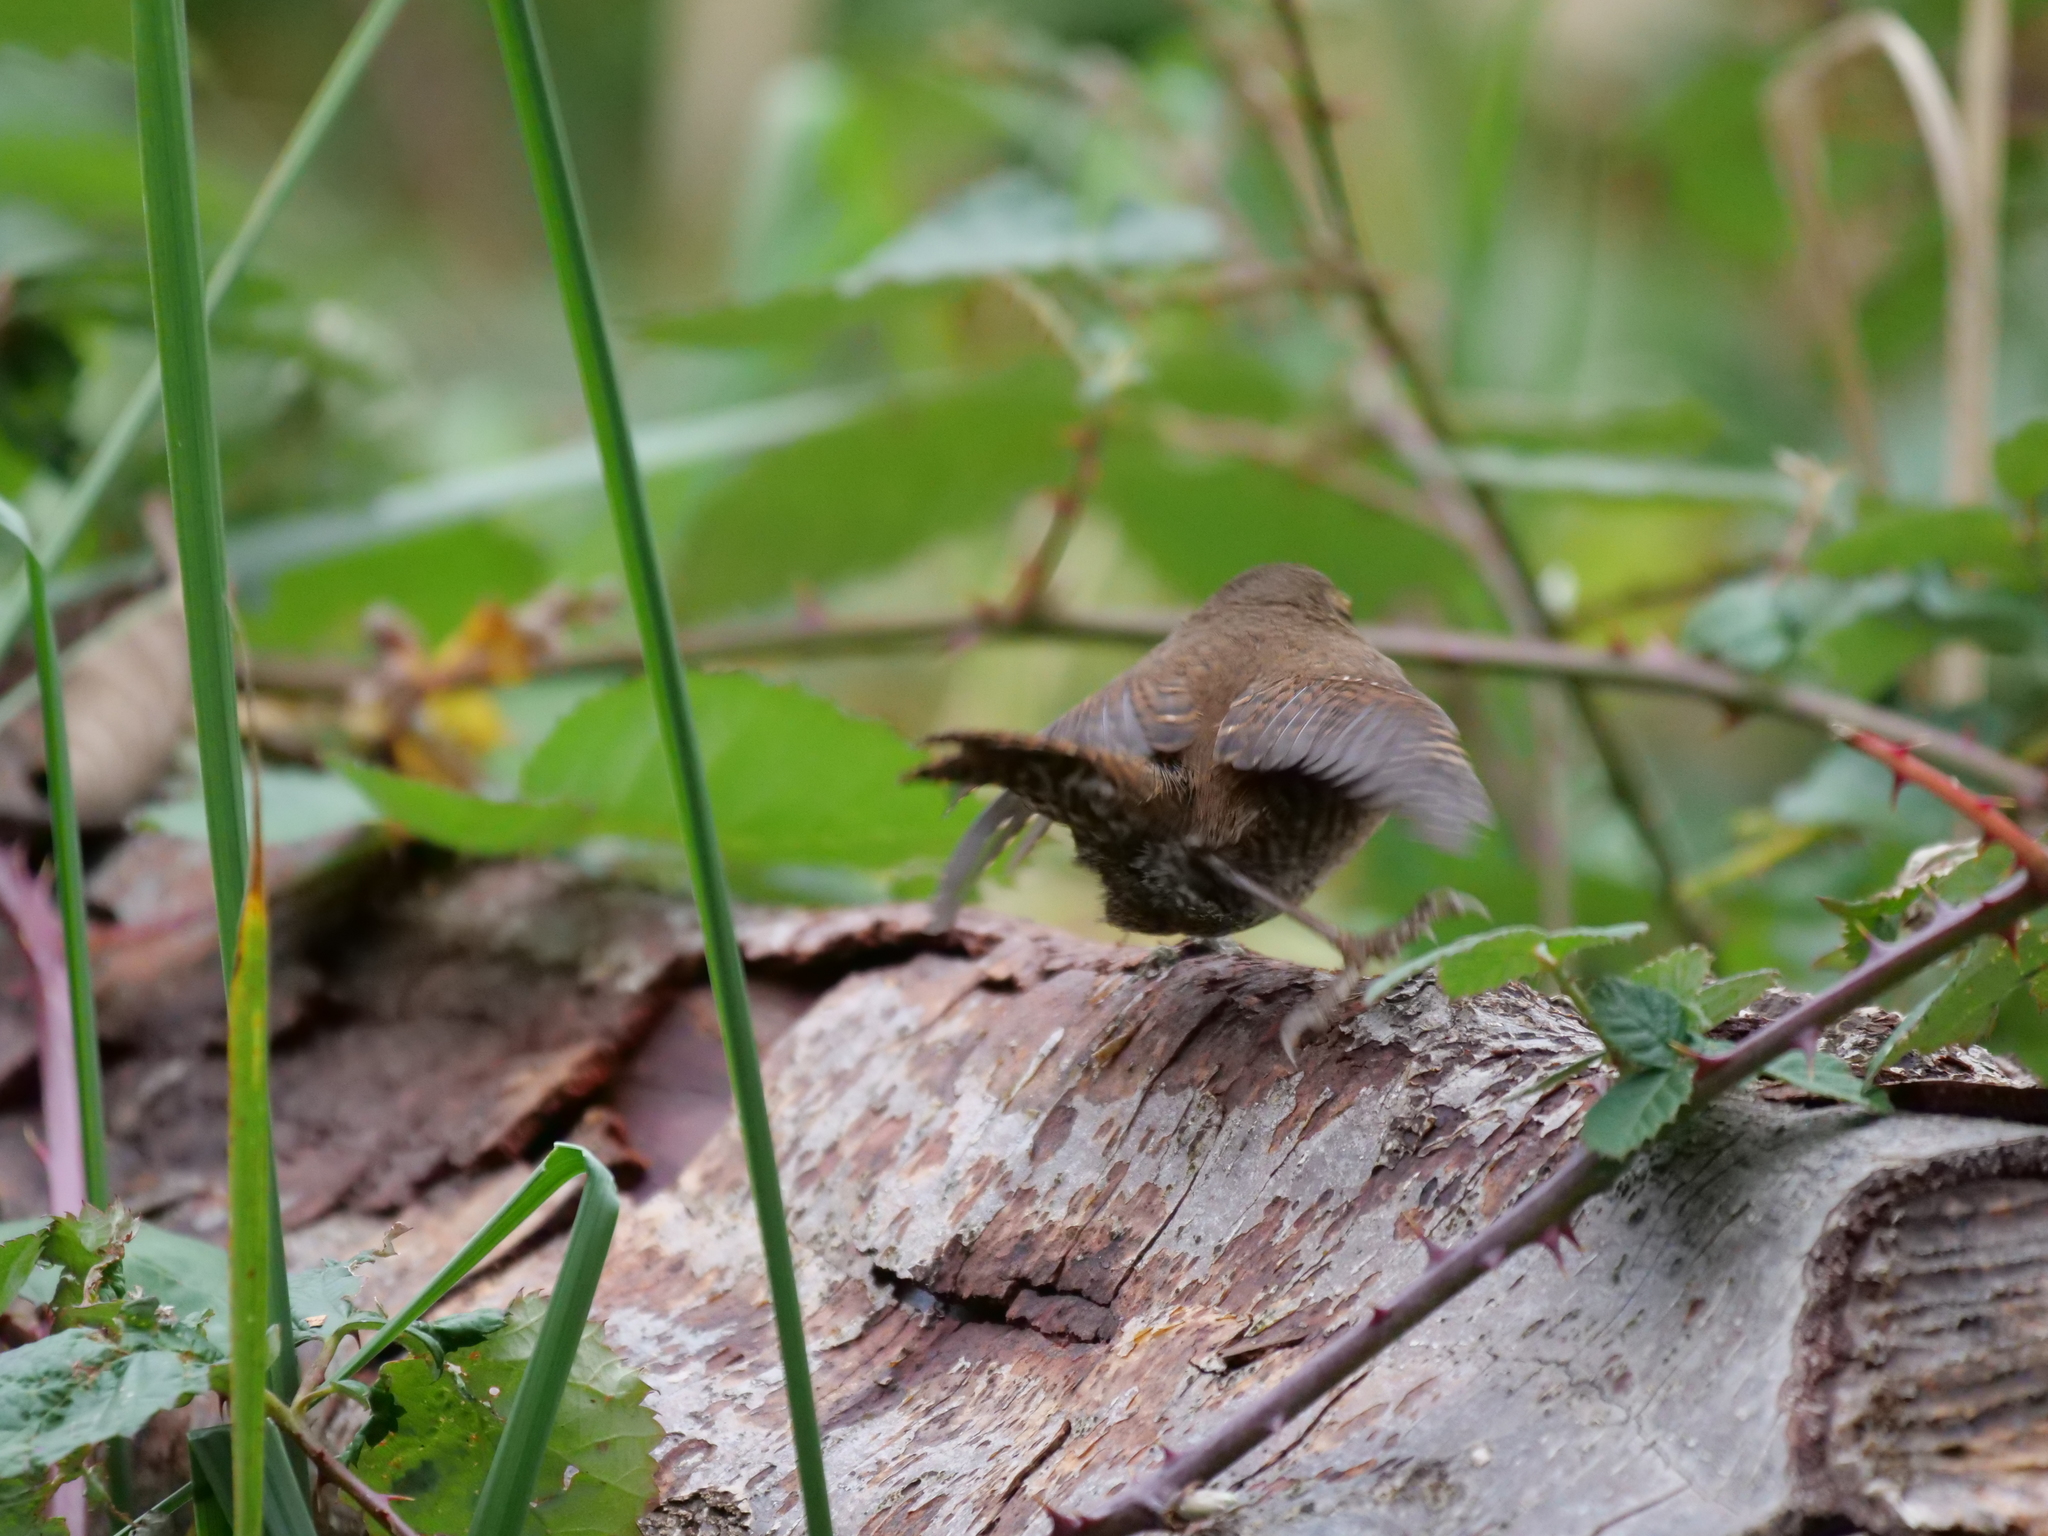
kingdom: Animalia
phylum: Chordata
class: Aves
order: Passeriformes
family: Troglodytidae
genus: Troglodytes
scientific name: Troglodytes pacificus
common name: Pacific wren
